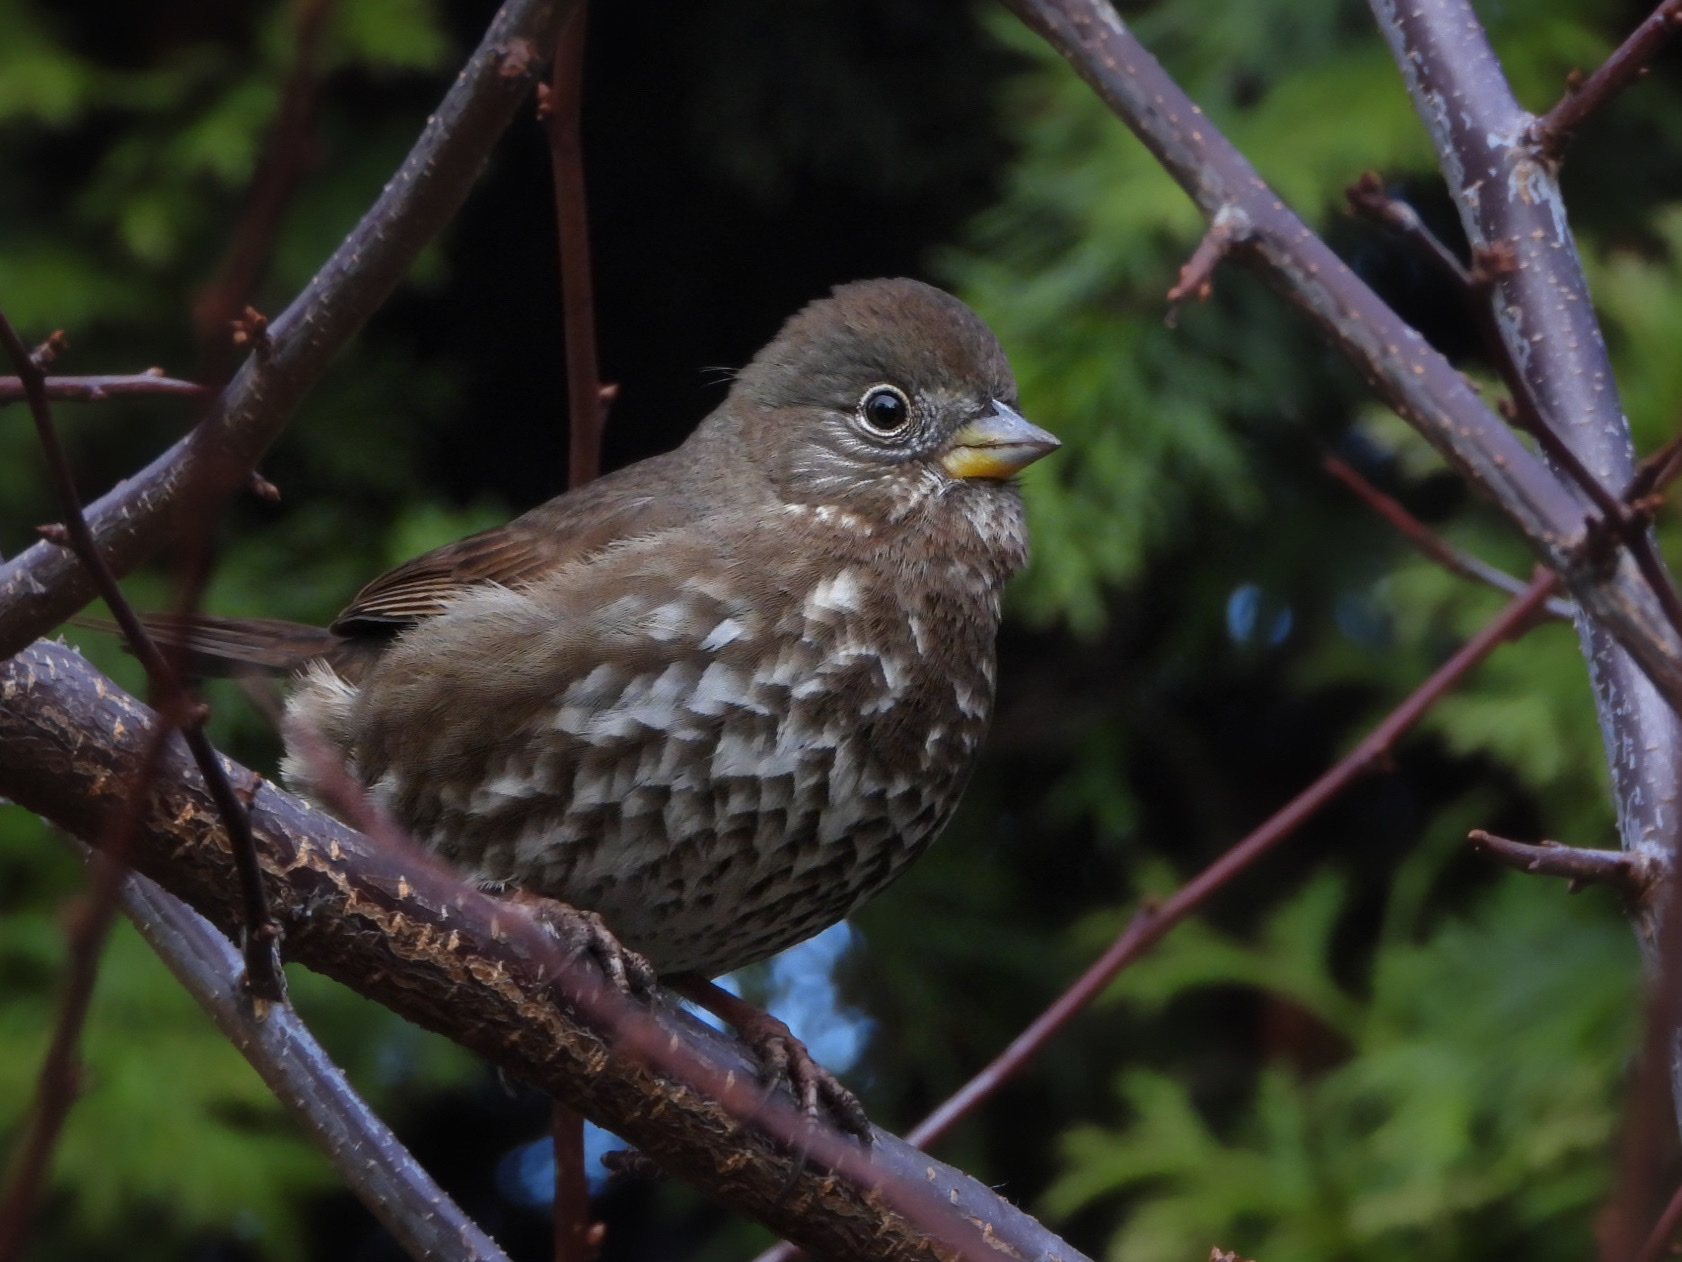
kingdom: Animalia
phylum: Chordata
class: Aves
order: Passeriformes
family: Passerellidae
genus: Passerella
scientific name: Passerella iliaca
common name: Fox sparrow
